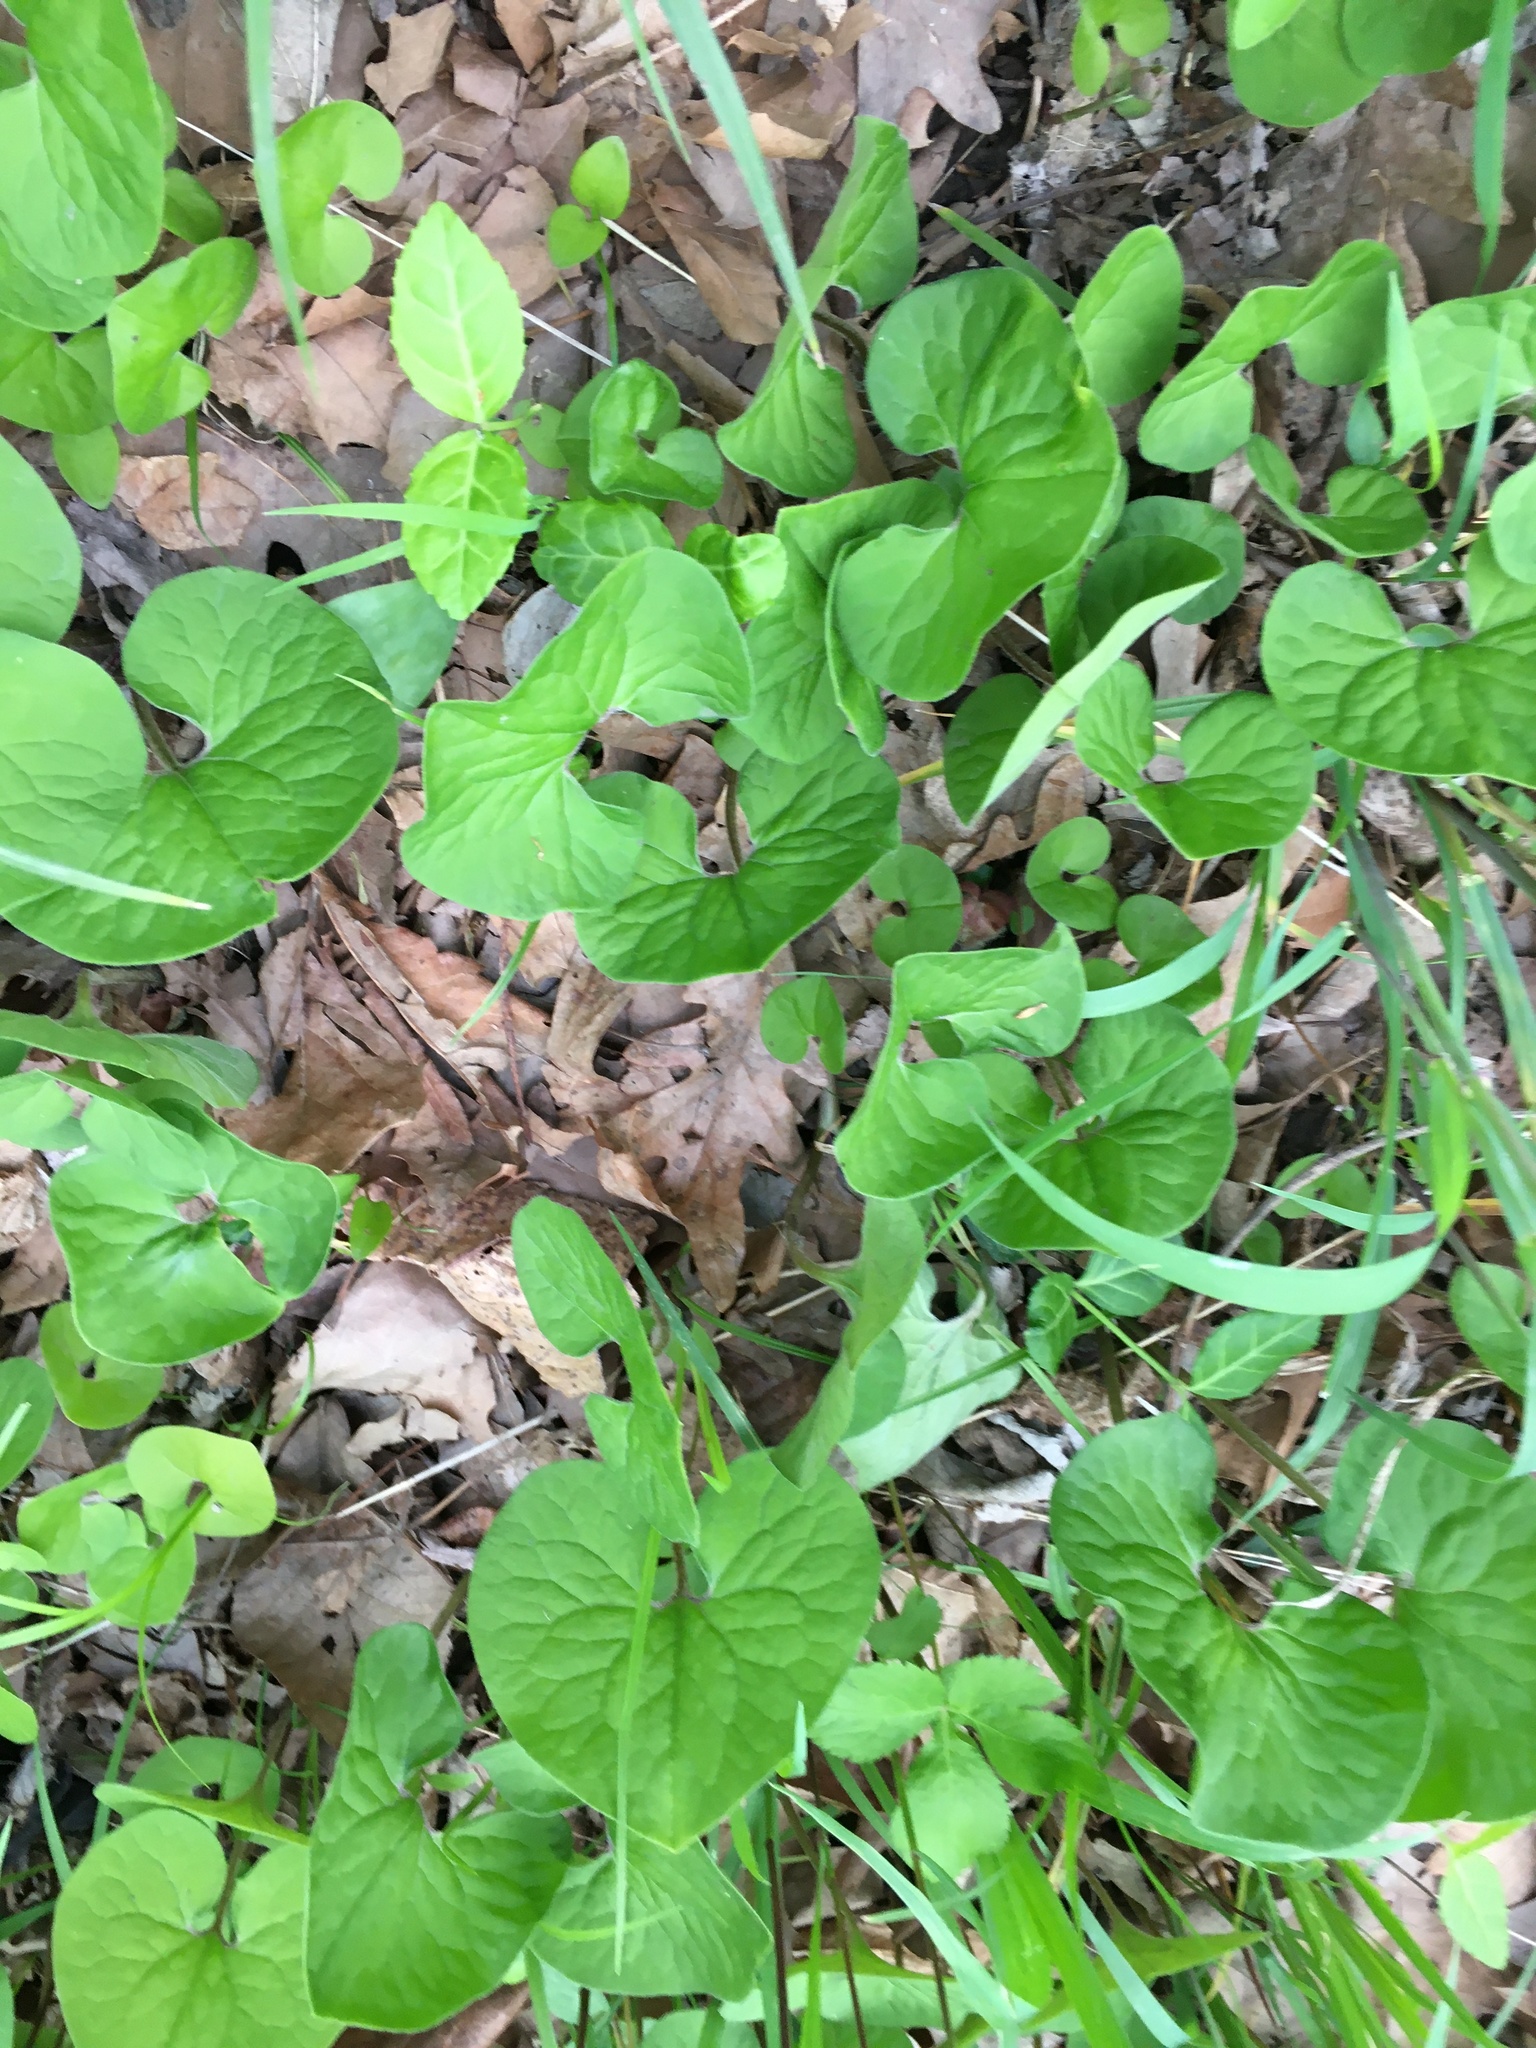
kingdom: Plantae
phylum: Tracheophyta
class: Magnoliopsida
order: Piperales
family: Aristolochiaceae
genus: Asarum
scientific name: Asarum canadense
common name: Wild ginger
